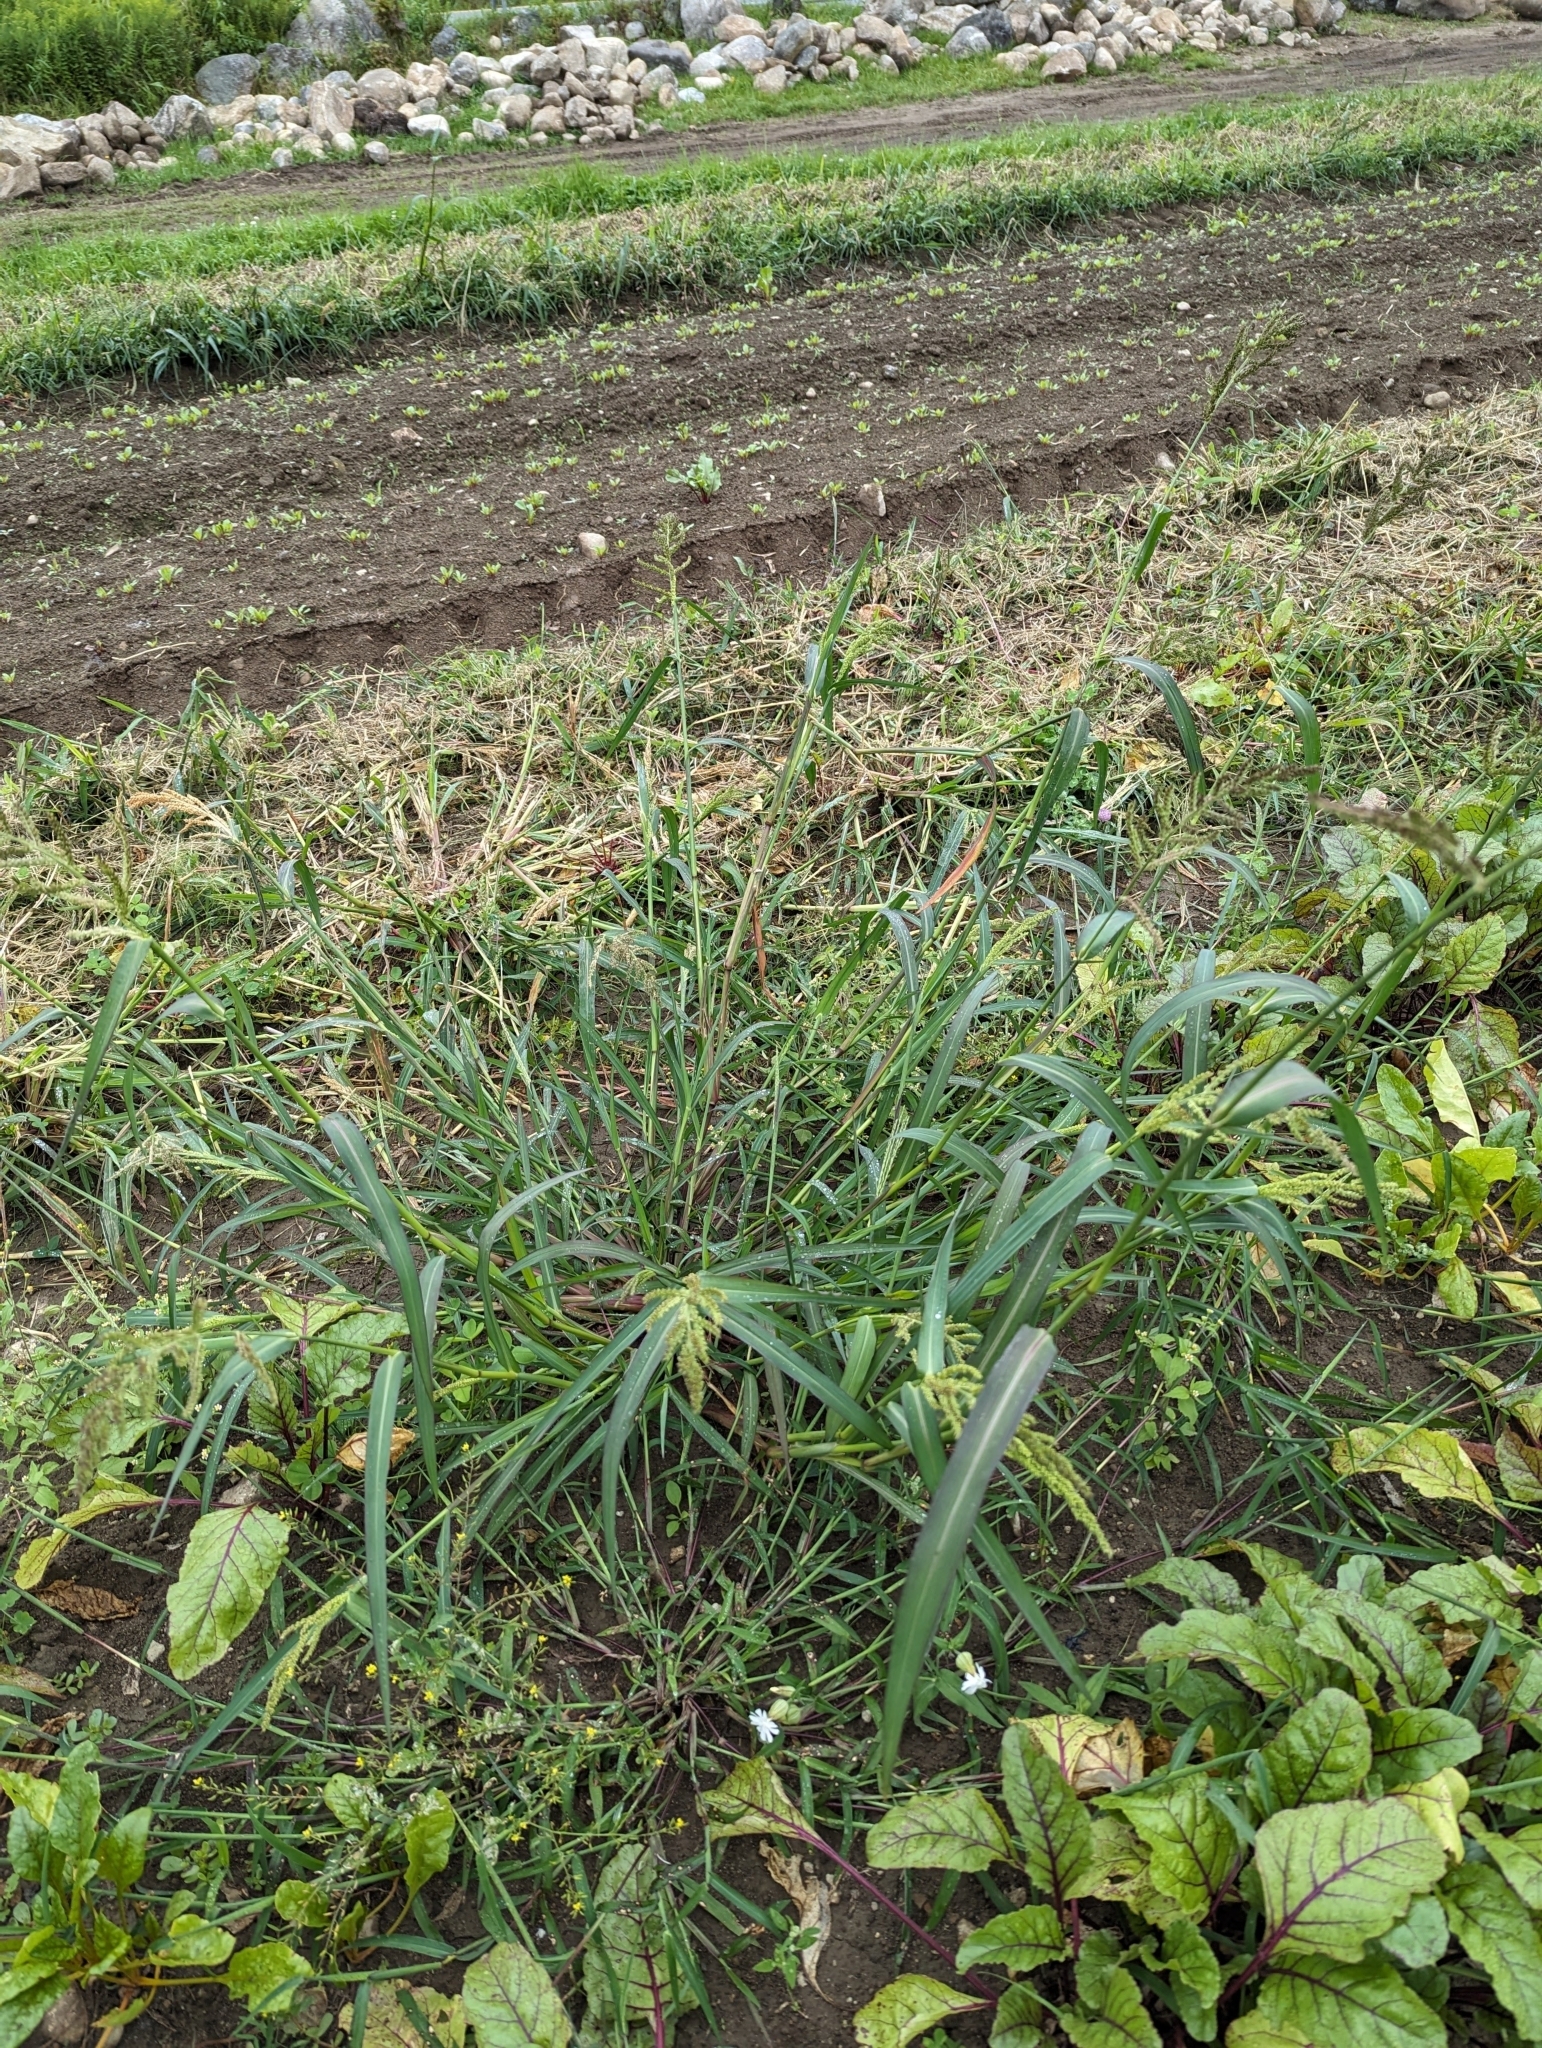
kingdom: Plantae
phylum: Tracheophyta
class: Liliopsida
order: Poales
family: Poaceae
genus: Echinochloa
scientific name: Echinochloa crus-galli
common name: Cockspur
